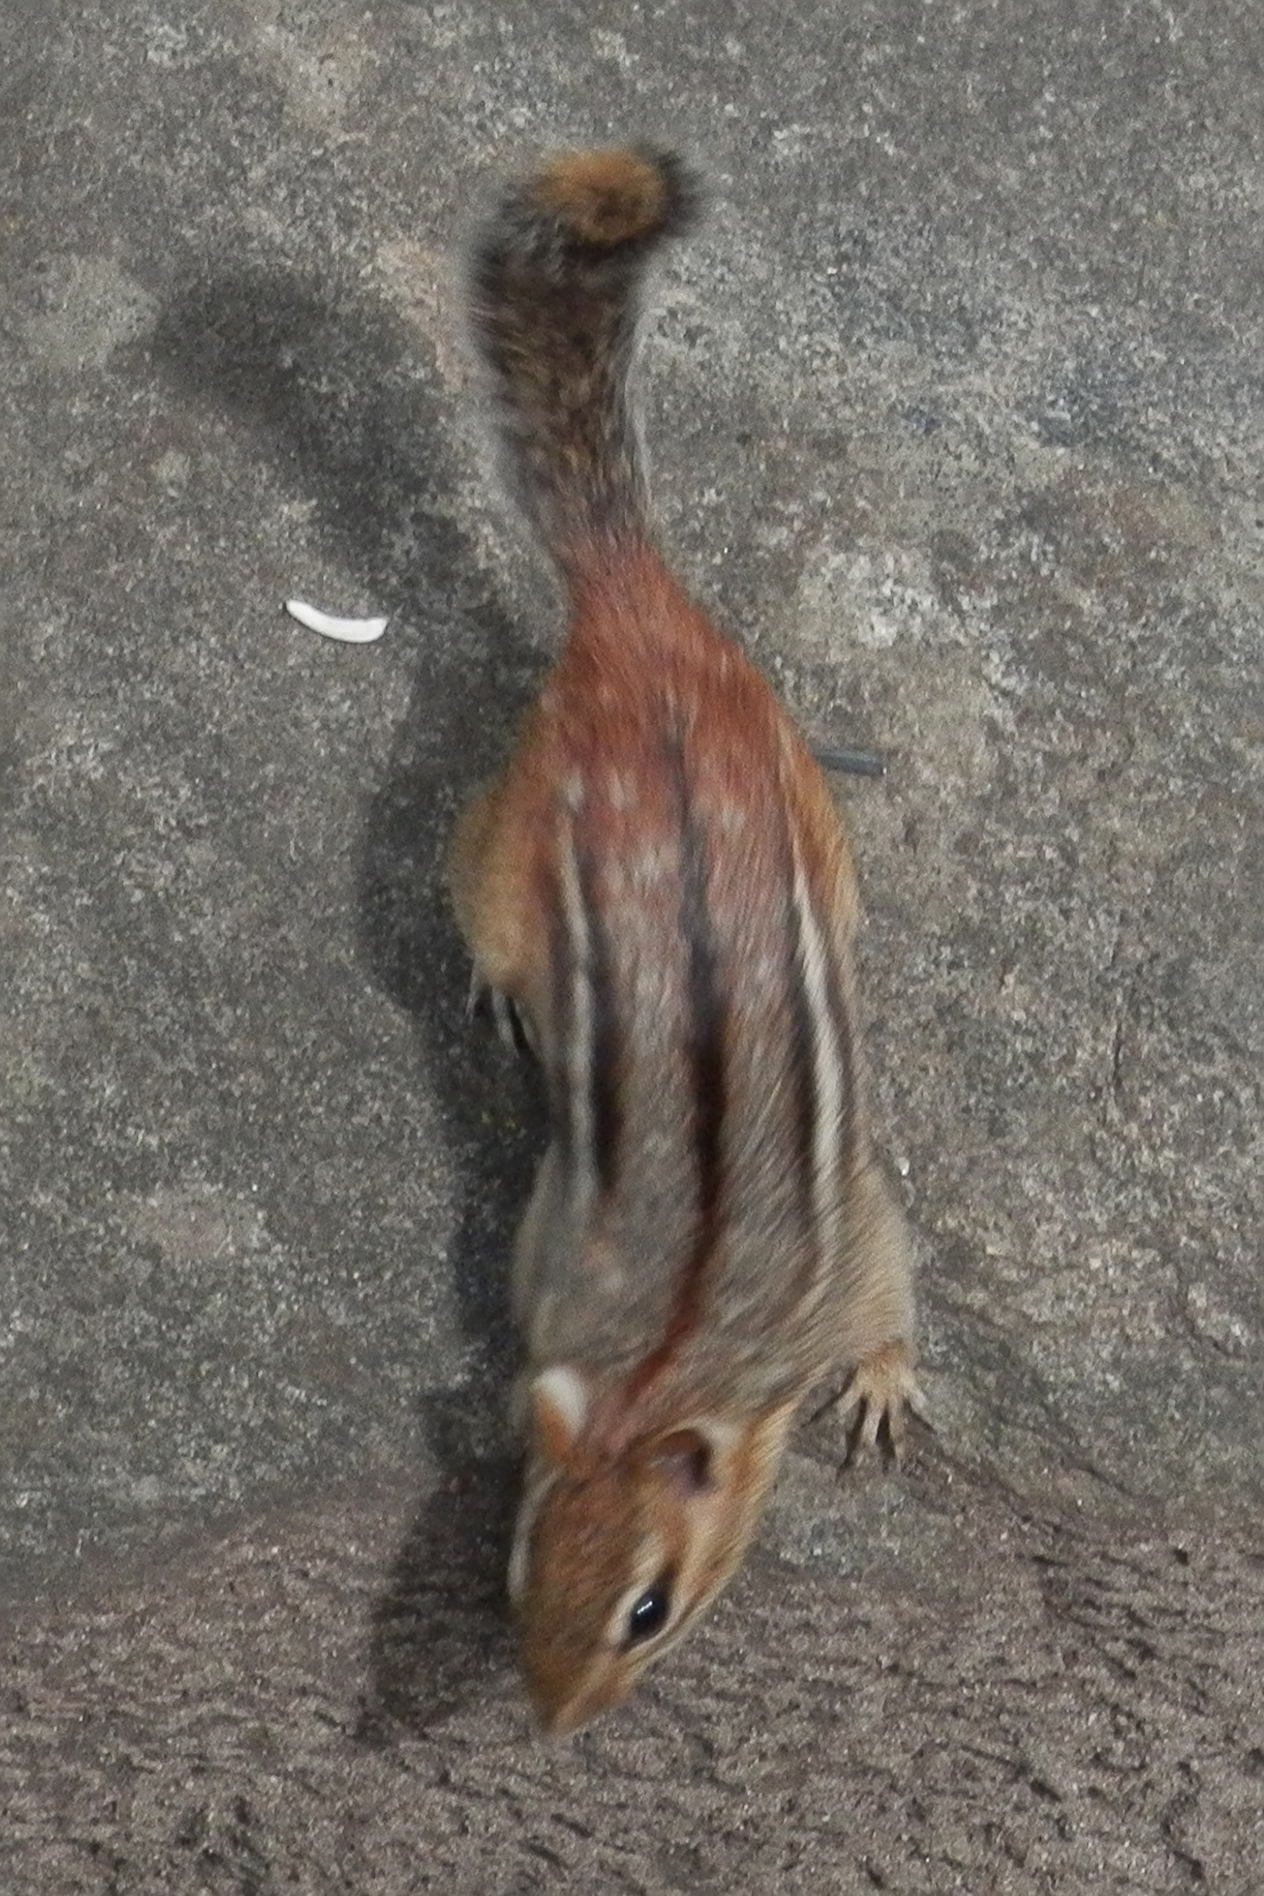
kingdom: Animalia
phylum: Chordata
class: Mammalia
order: Rodentia
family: Sciuridae
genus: Tamias
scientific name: Tamias striatus
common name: Eastern chipmunk
